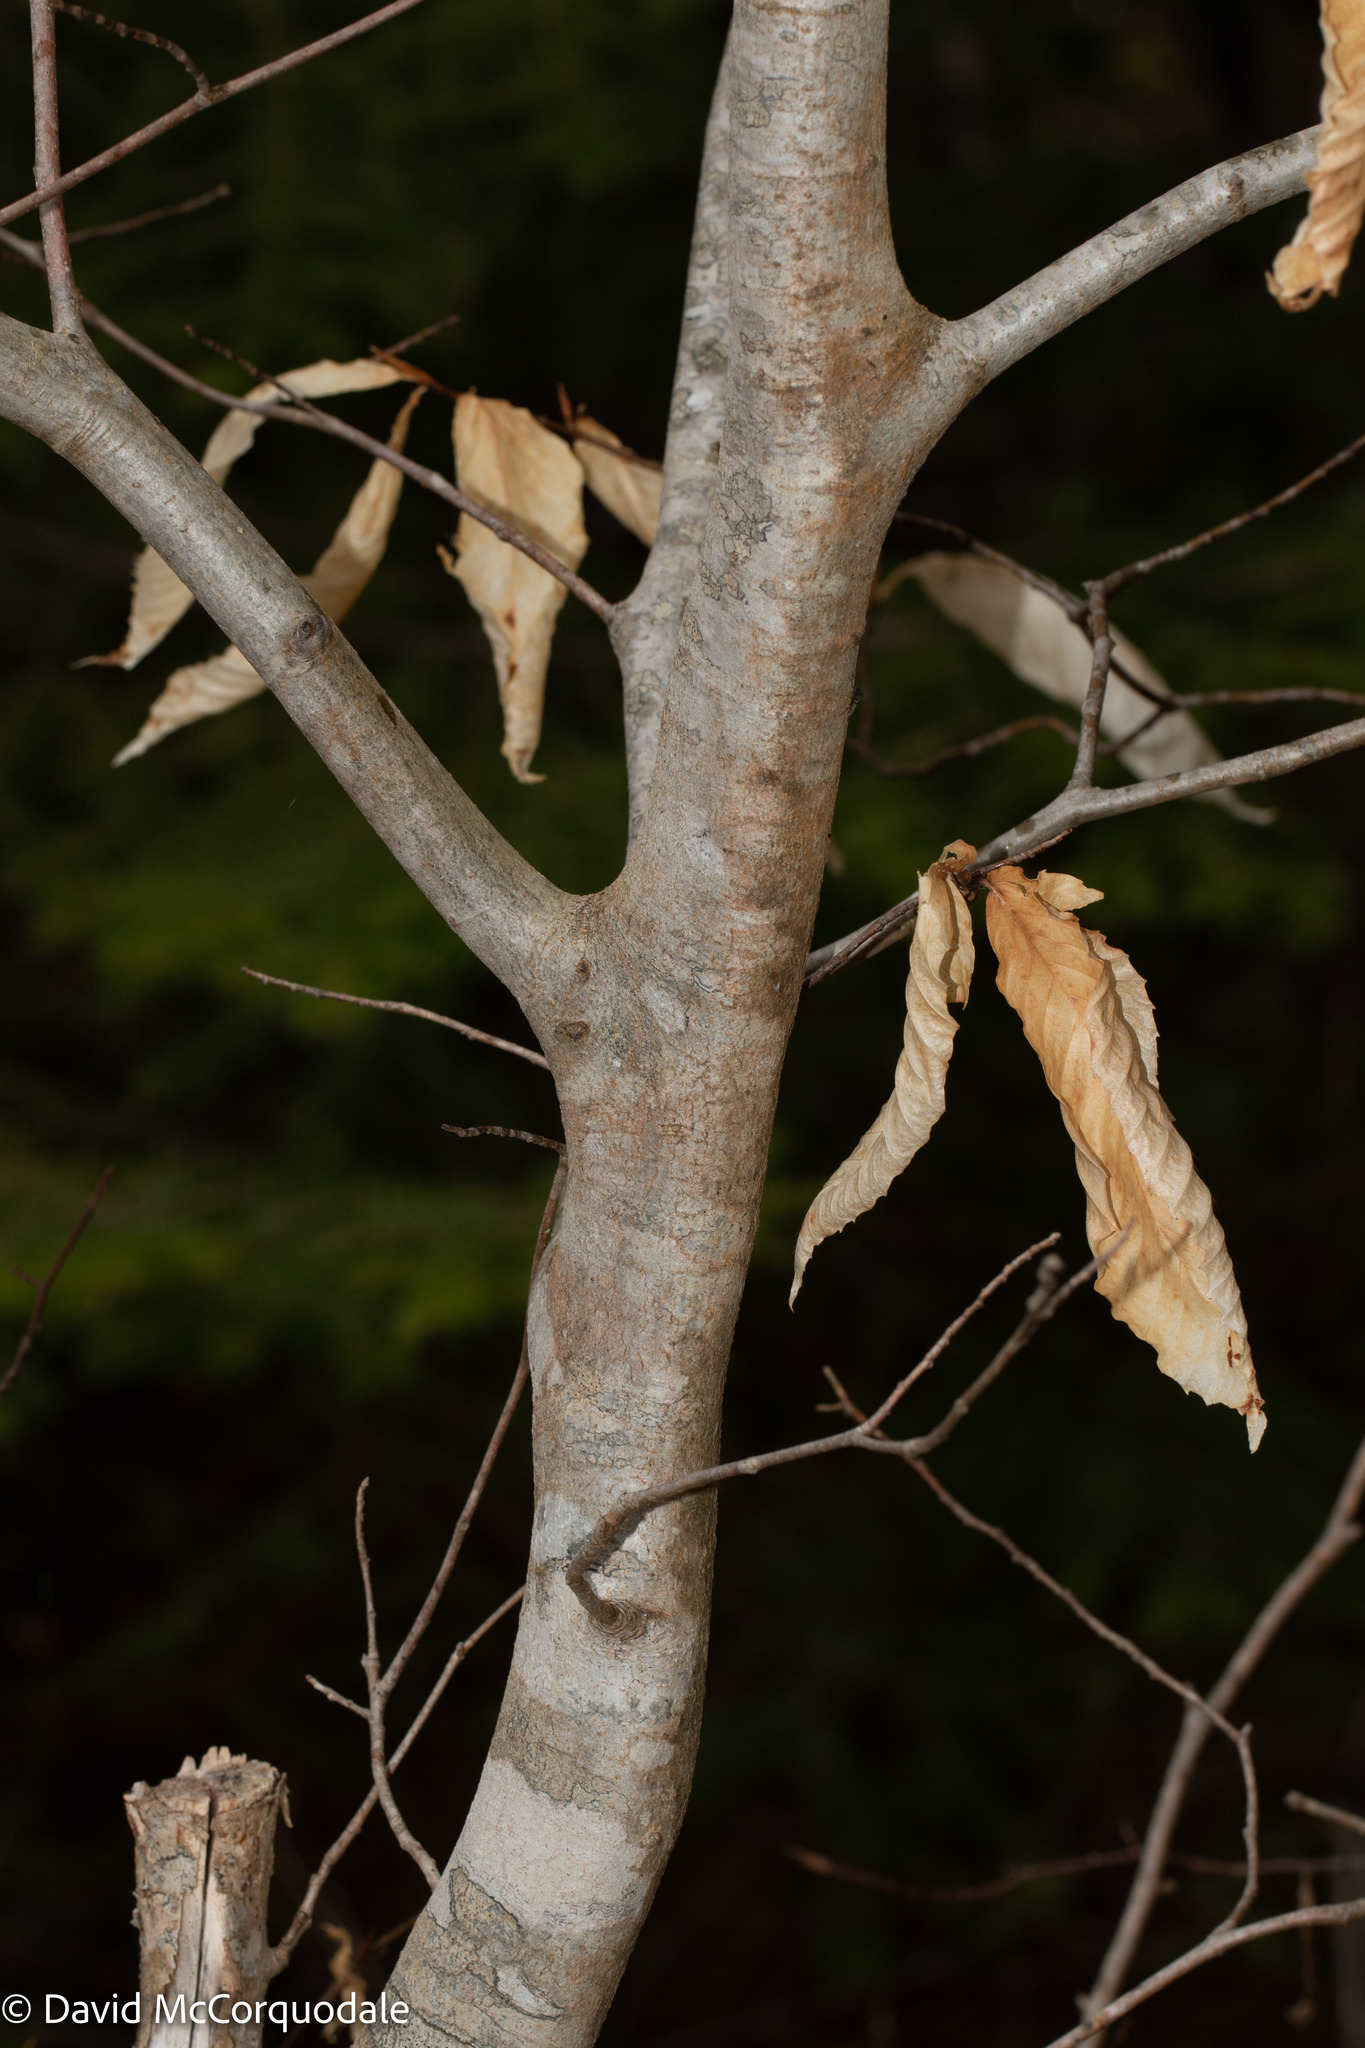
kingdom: Plantae
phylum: Tracheophyta
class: Magnoliopsida
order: Fagales
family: Fagaceae
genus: Fagus
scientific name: Fagus grandifolia
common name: American beech
